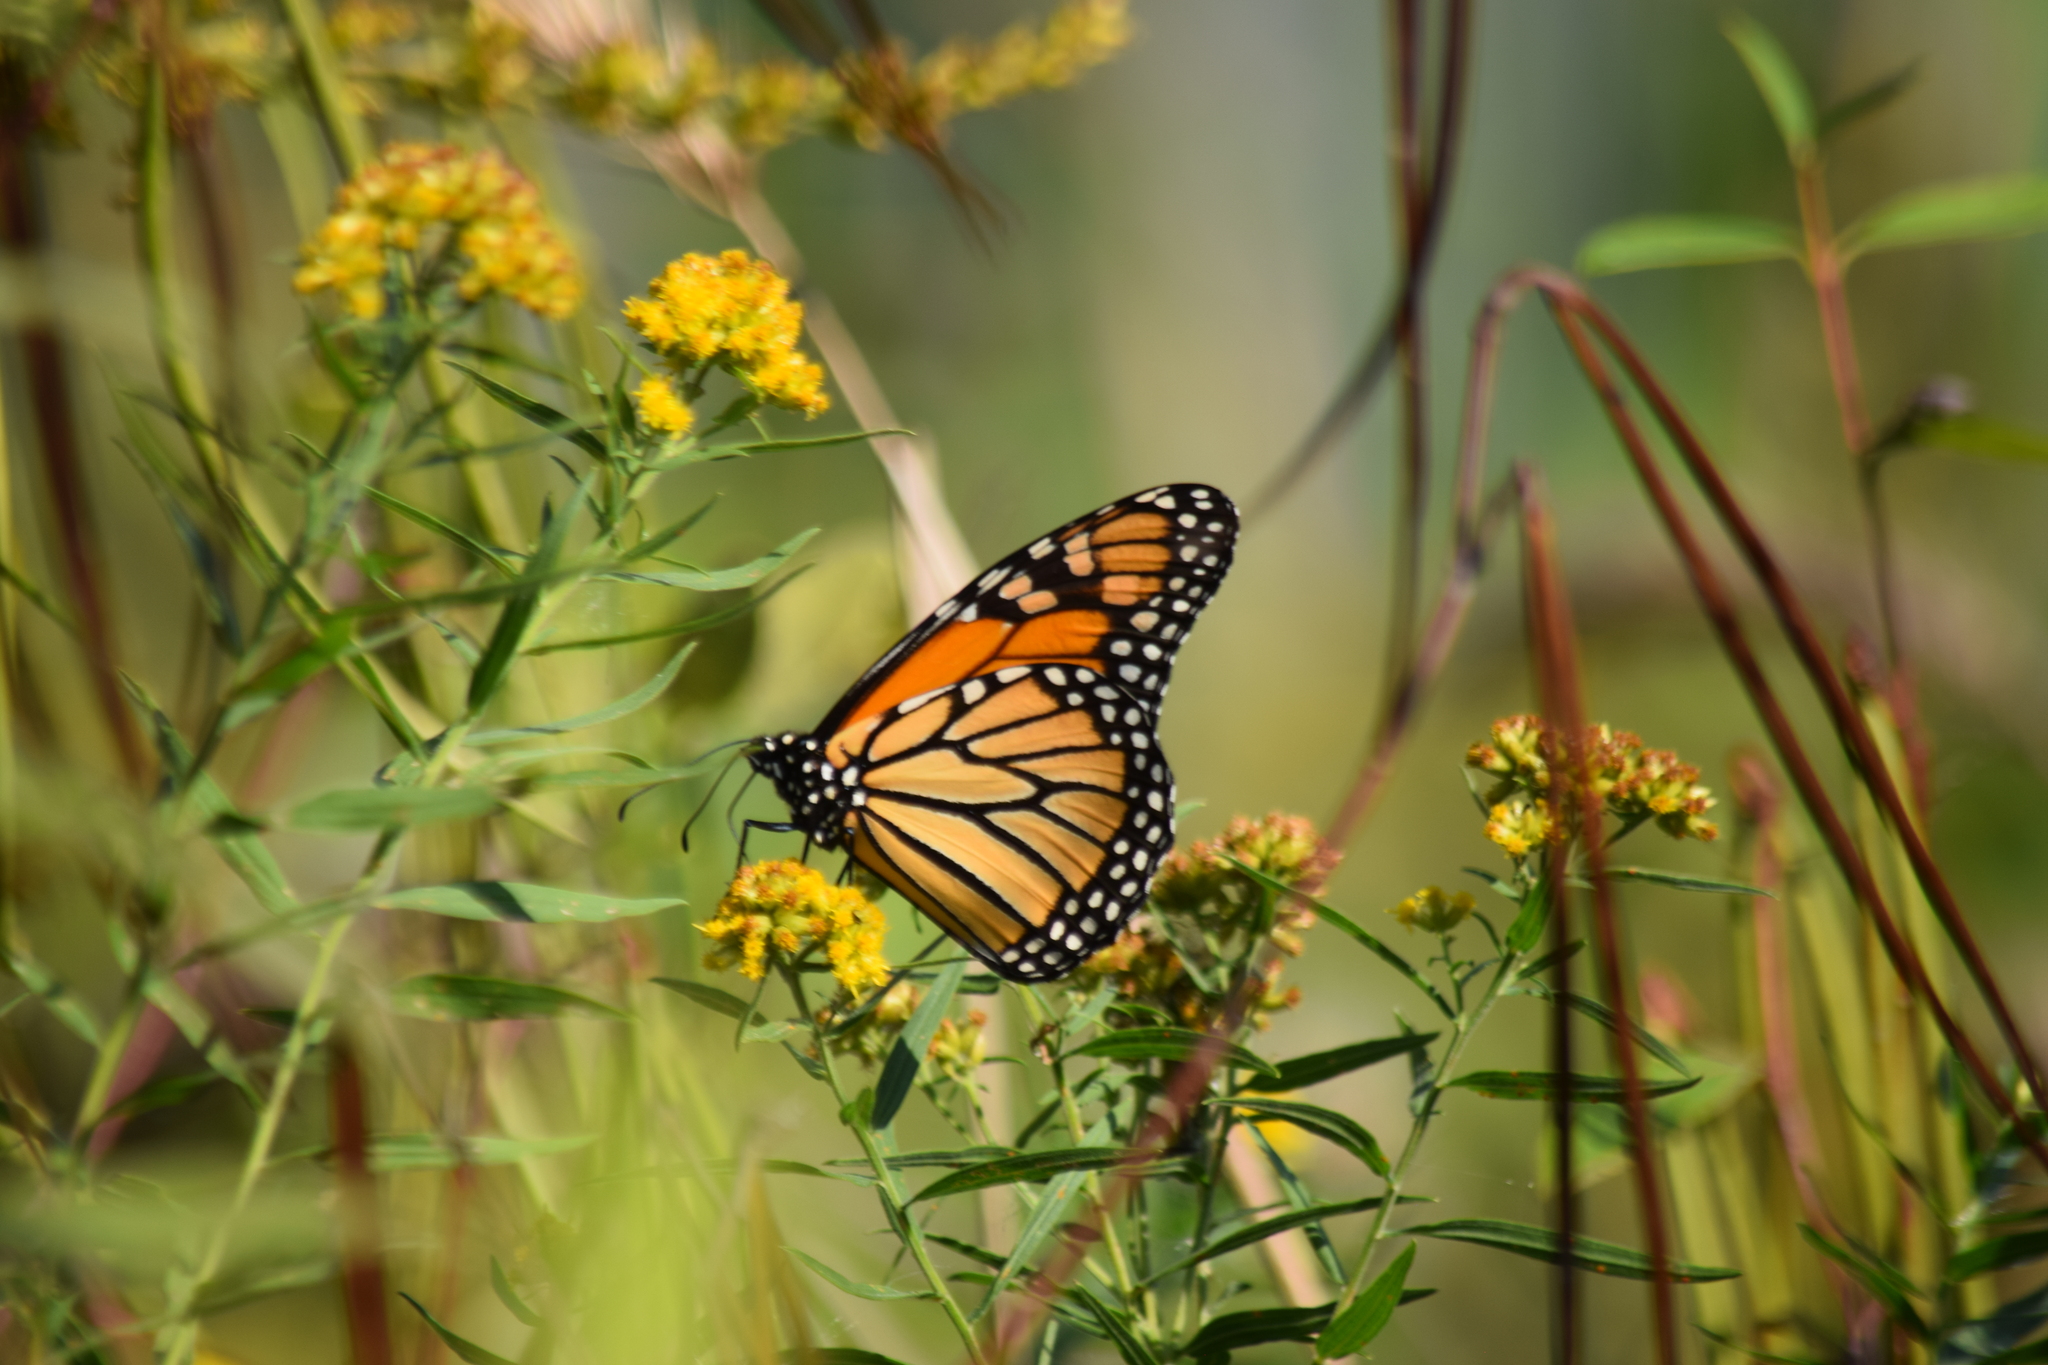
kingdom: Animalia
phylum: Arthropoda
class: Insecta
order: Lepidoptera
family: Nymphalidae
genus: Danaus
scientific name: Danaus plexippus
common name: Monarch
